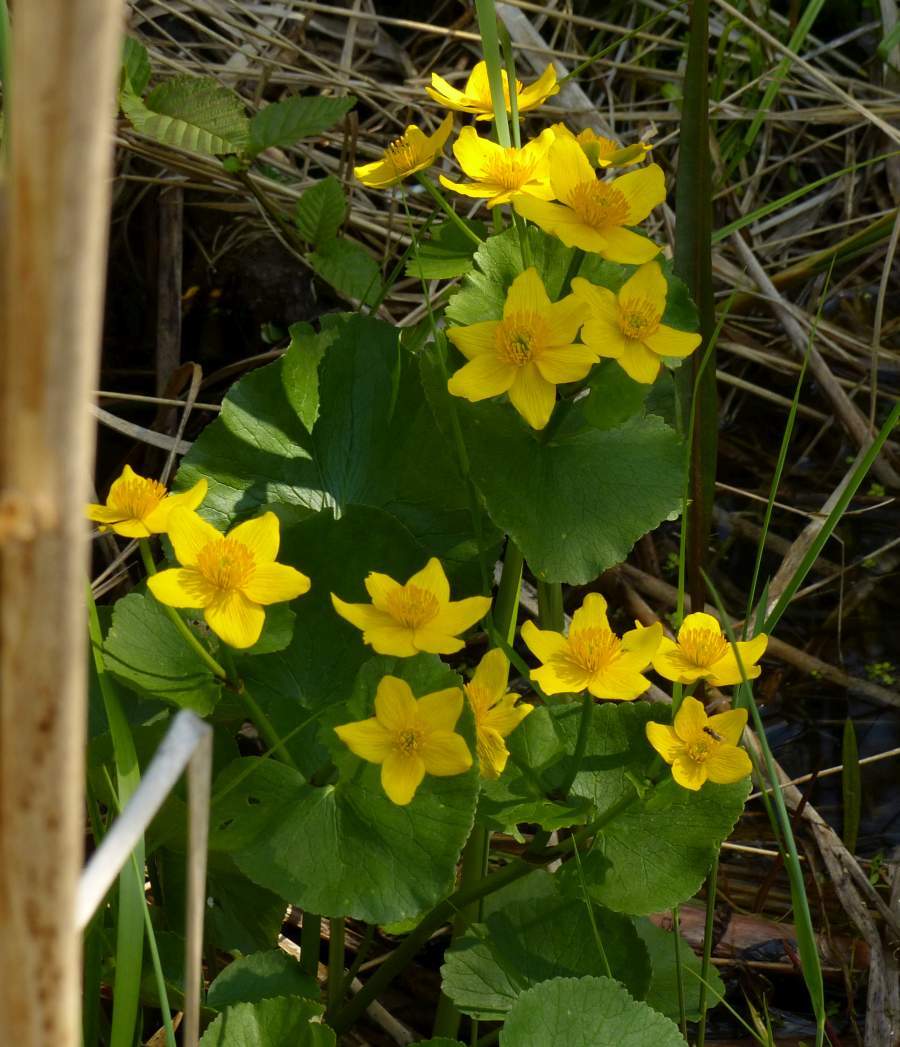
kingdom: Plantae
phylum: Tracheophyta
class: Magnoliopsida
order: Ranunculales
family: Ranunculaceae
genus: Caltha
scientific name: Caltha palustris
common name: Marsh marigold
